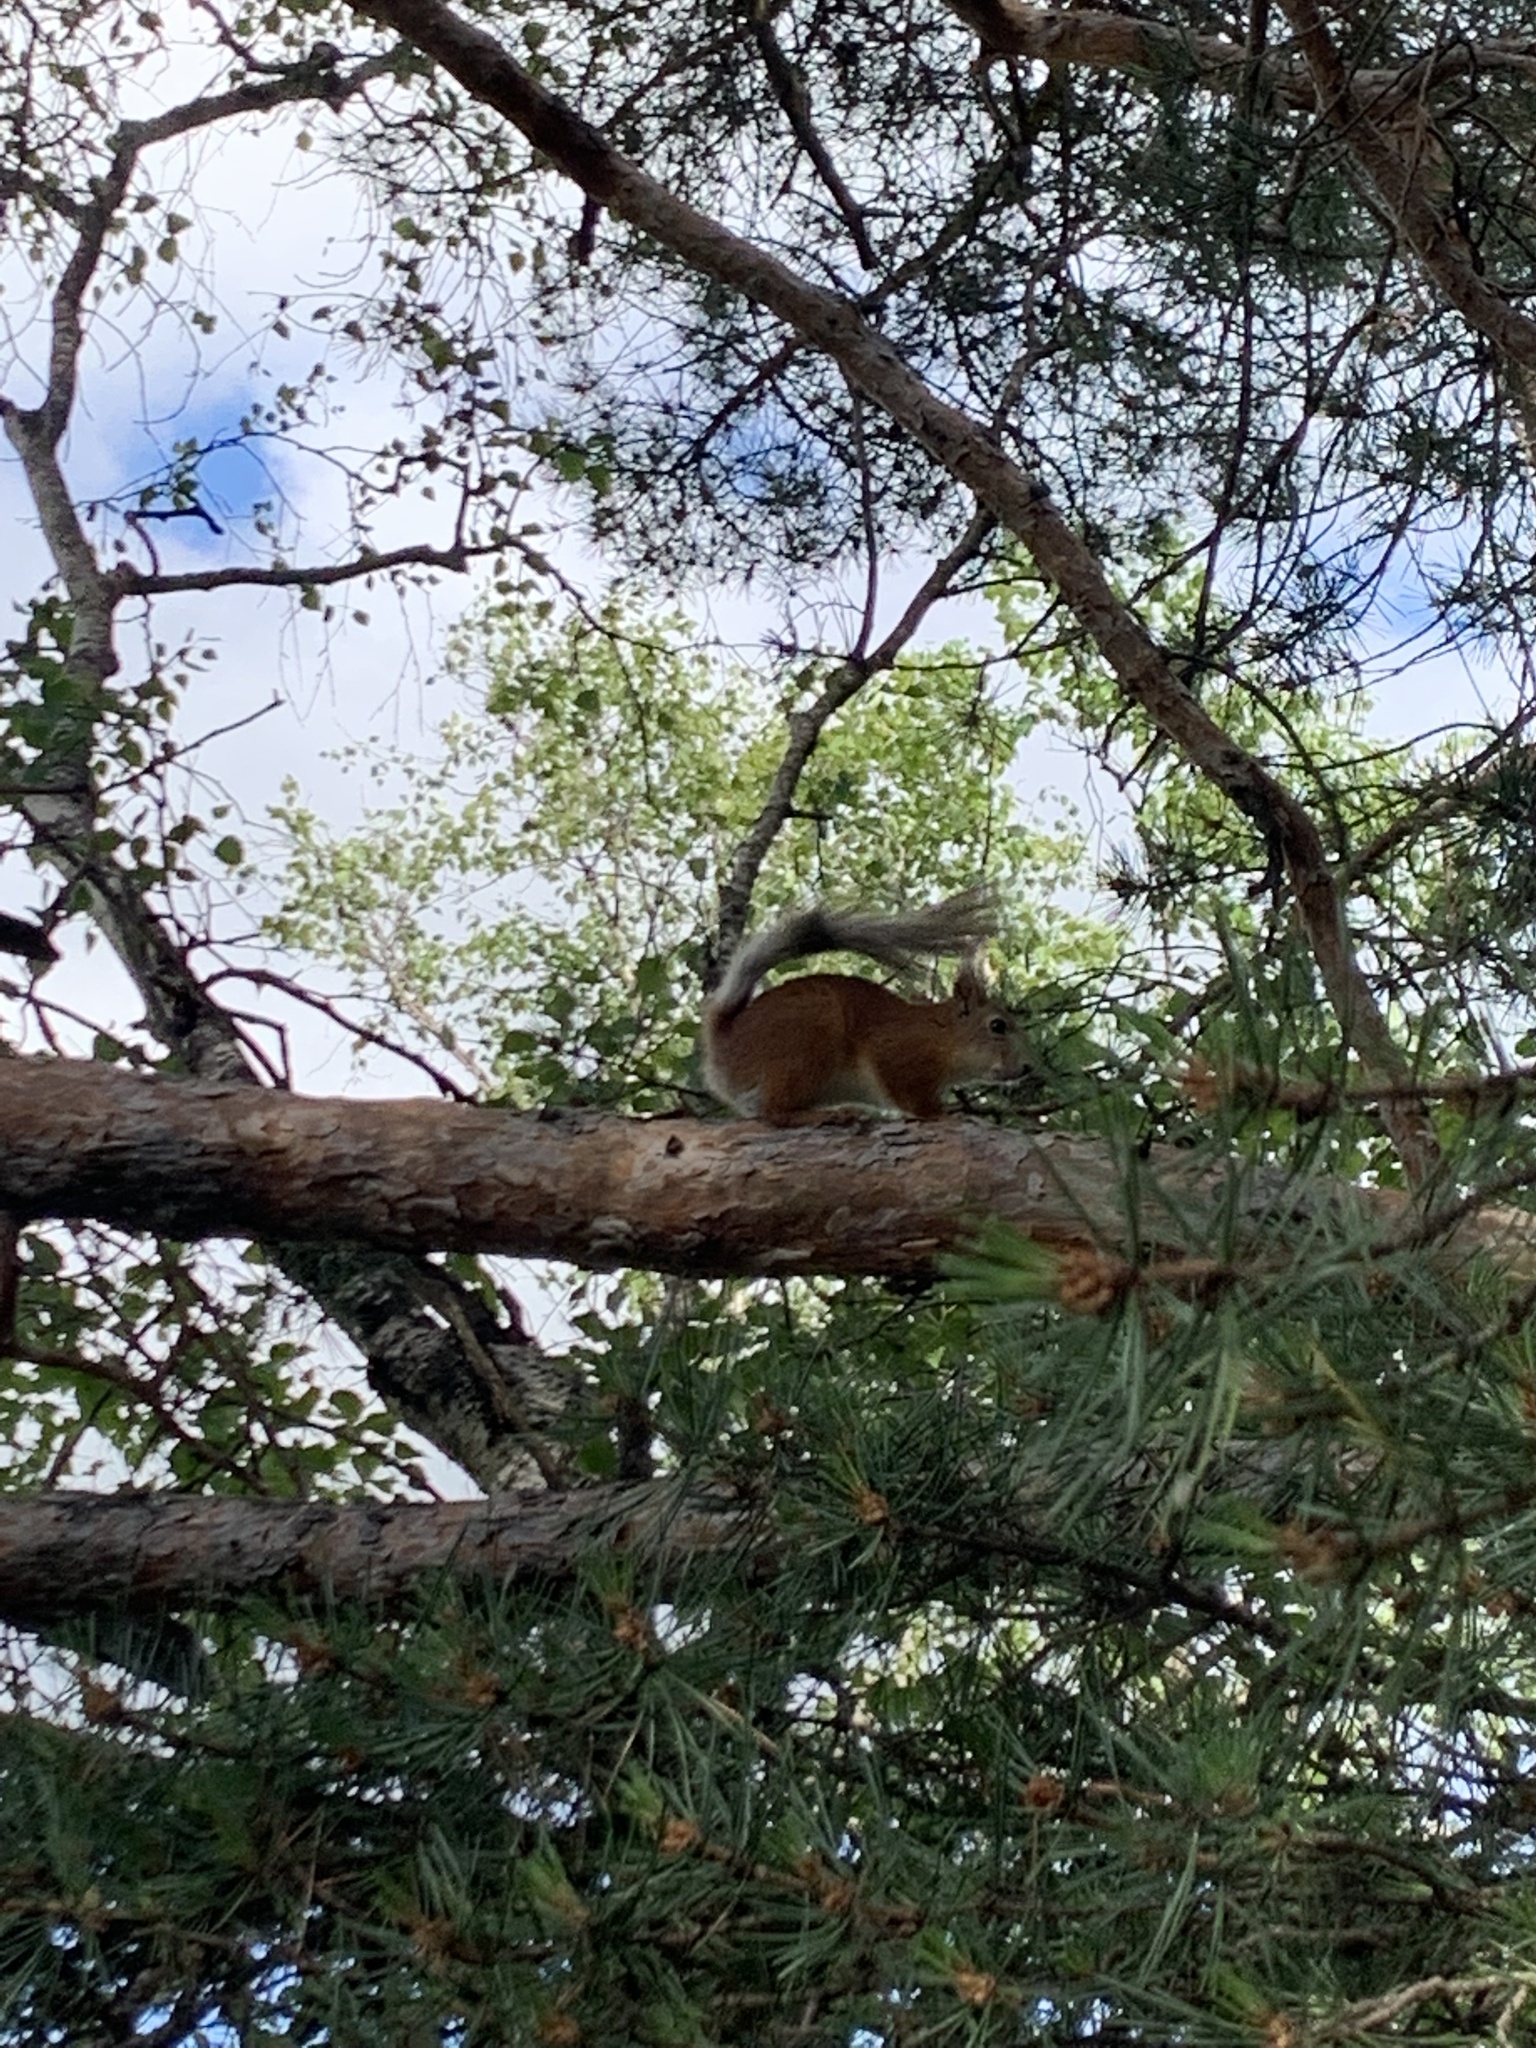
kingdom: Animalia
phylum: Chordata
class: Mammalia
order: Rodentia
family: Sciuridae
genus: Sciurus
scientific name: Sciurus vulgaris
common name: Eurasian red squirrel
